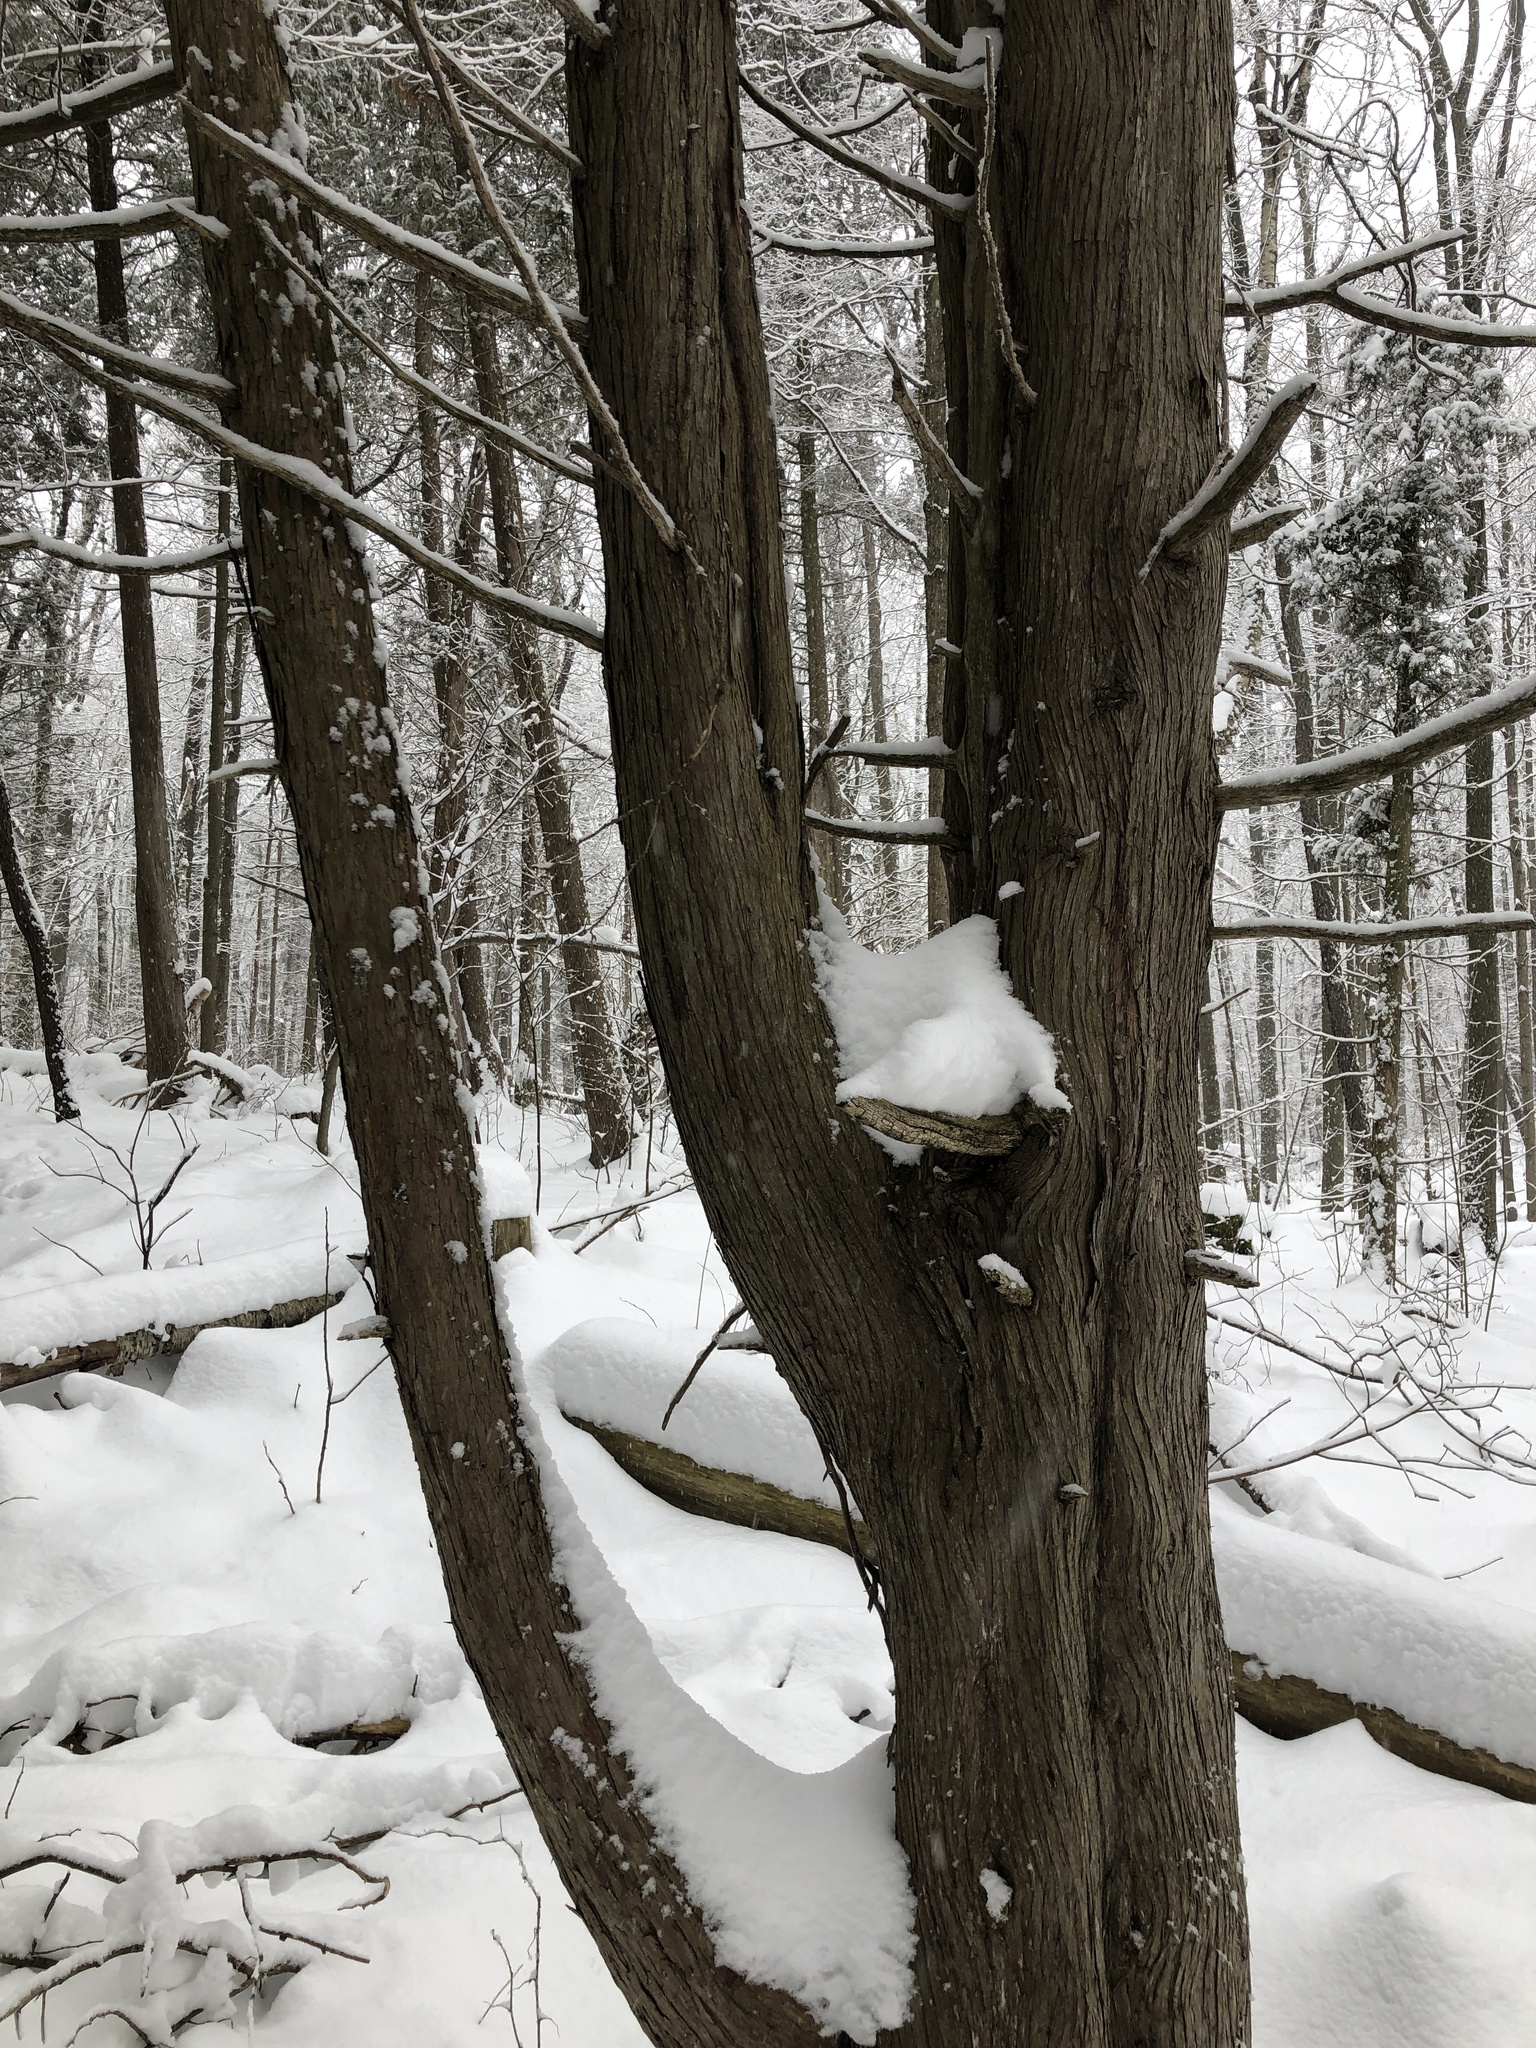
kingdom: Plantae
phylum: Tracheophyta
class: Pinopsida
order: Pinales
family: Cupressaceae
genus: Thuja
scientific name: Thuja occidentalis
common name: Northern white-cedar
